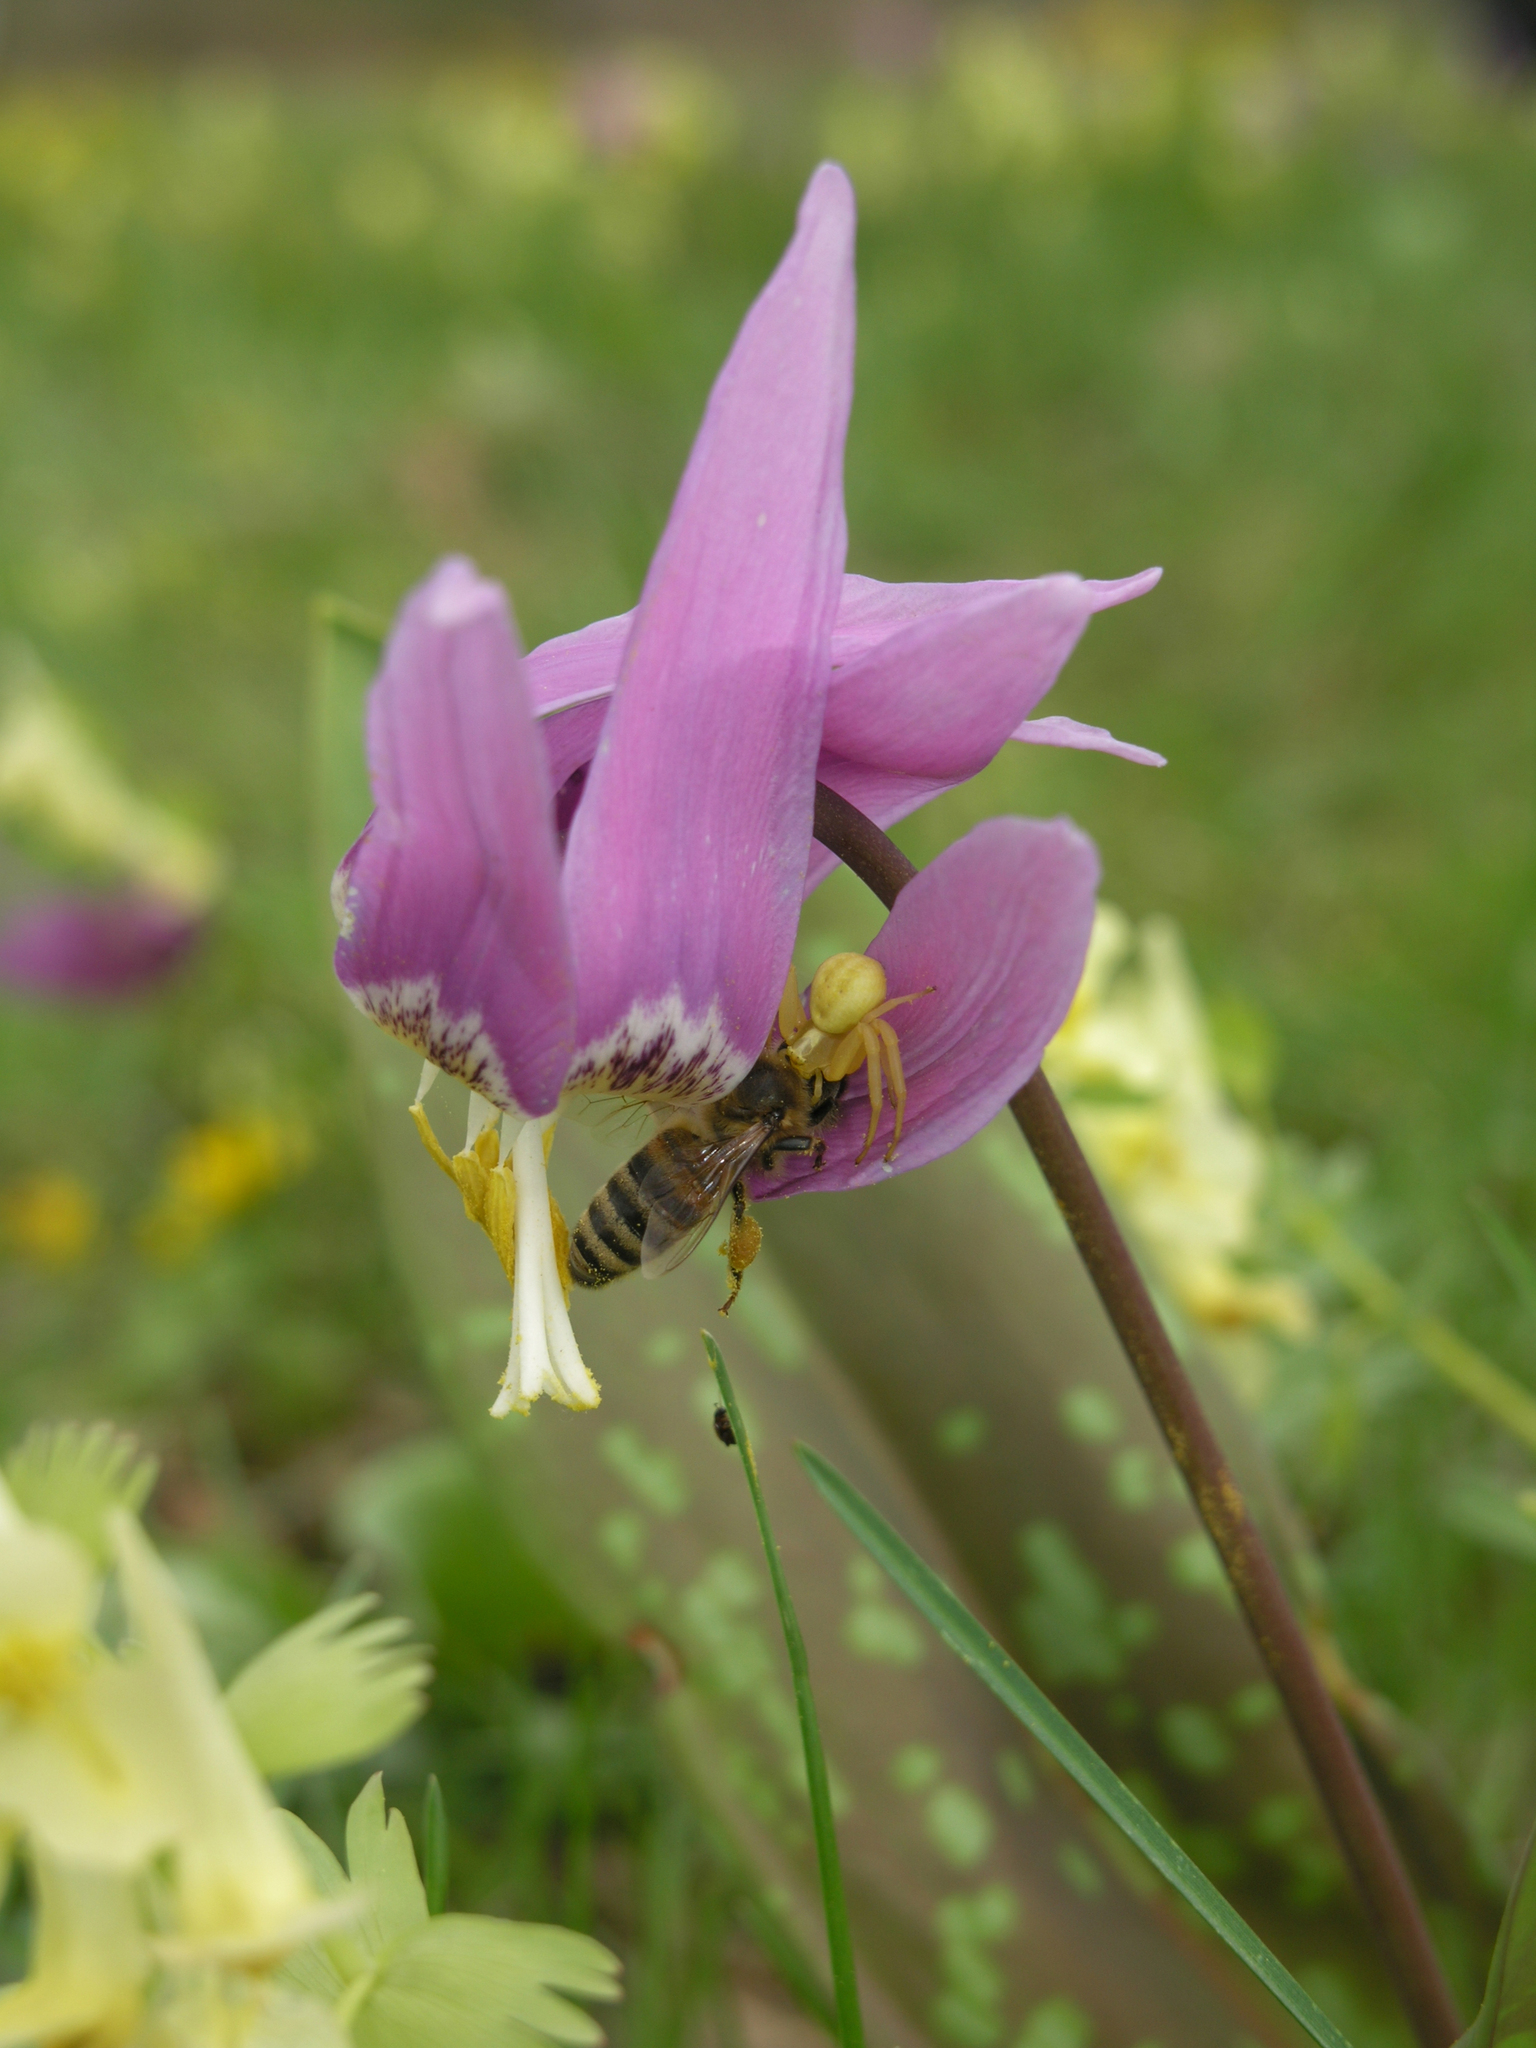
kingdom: Animalia
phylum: Arthropoda
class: Insecta
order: Hymenoptera
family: Apidae
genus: Apis
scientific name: Apis mellifera
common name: Honey bee
